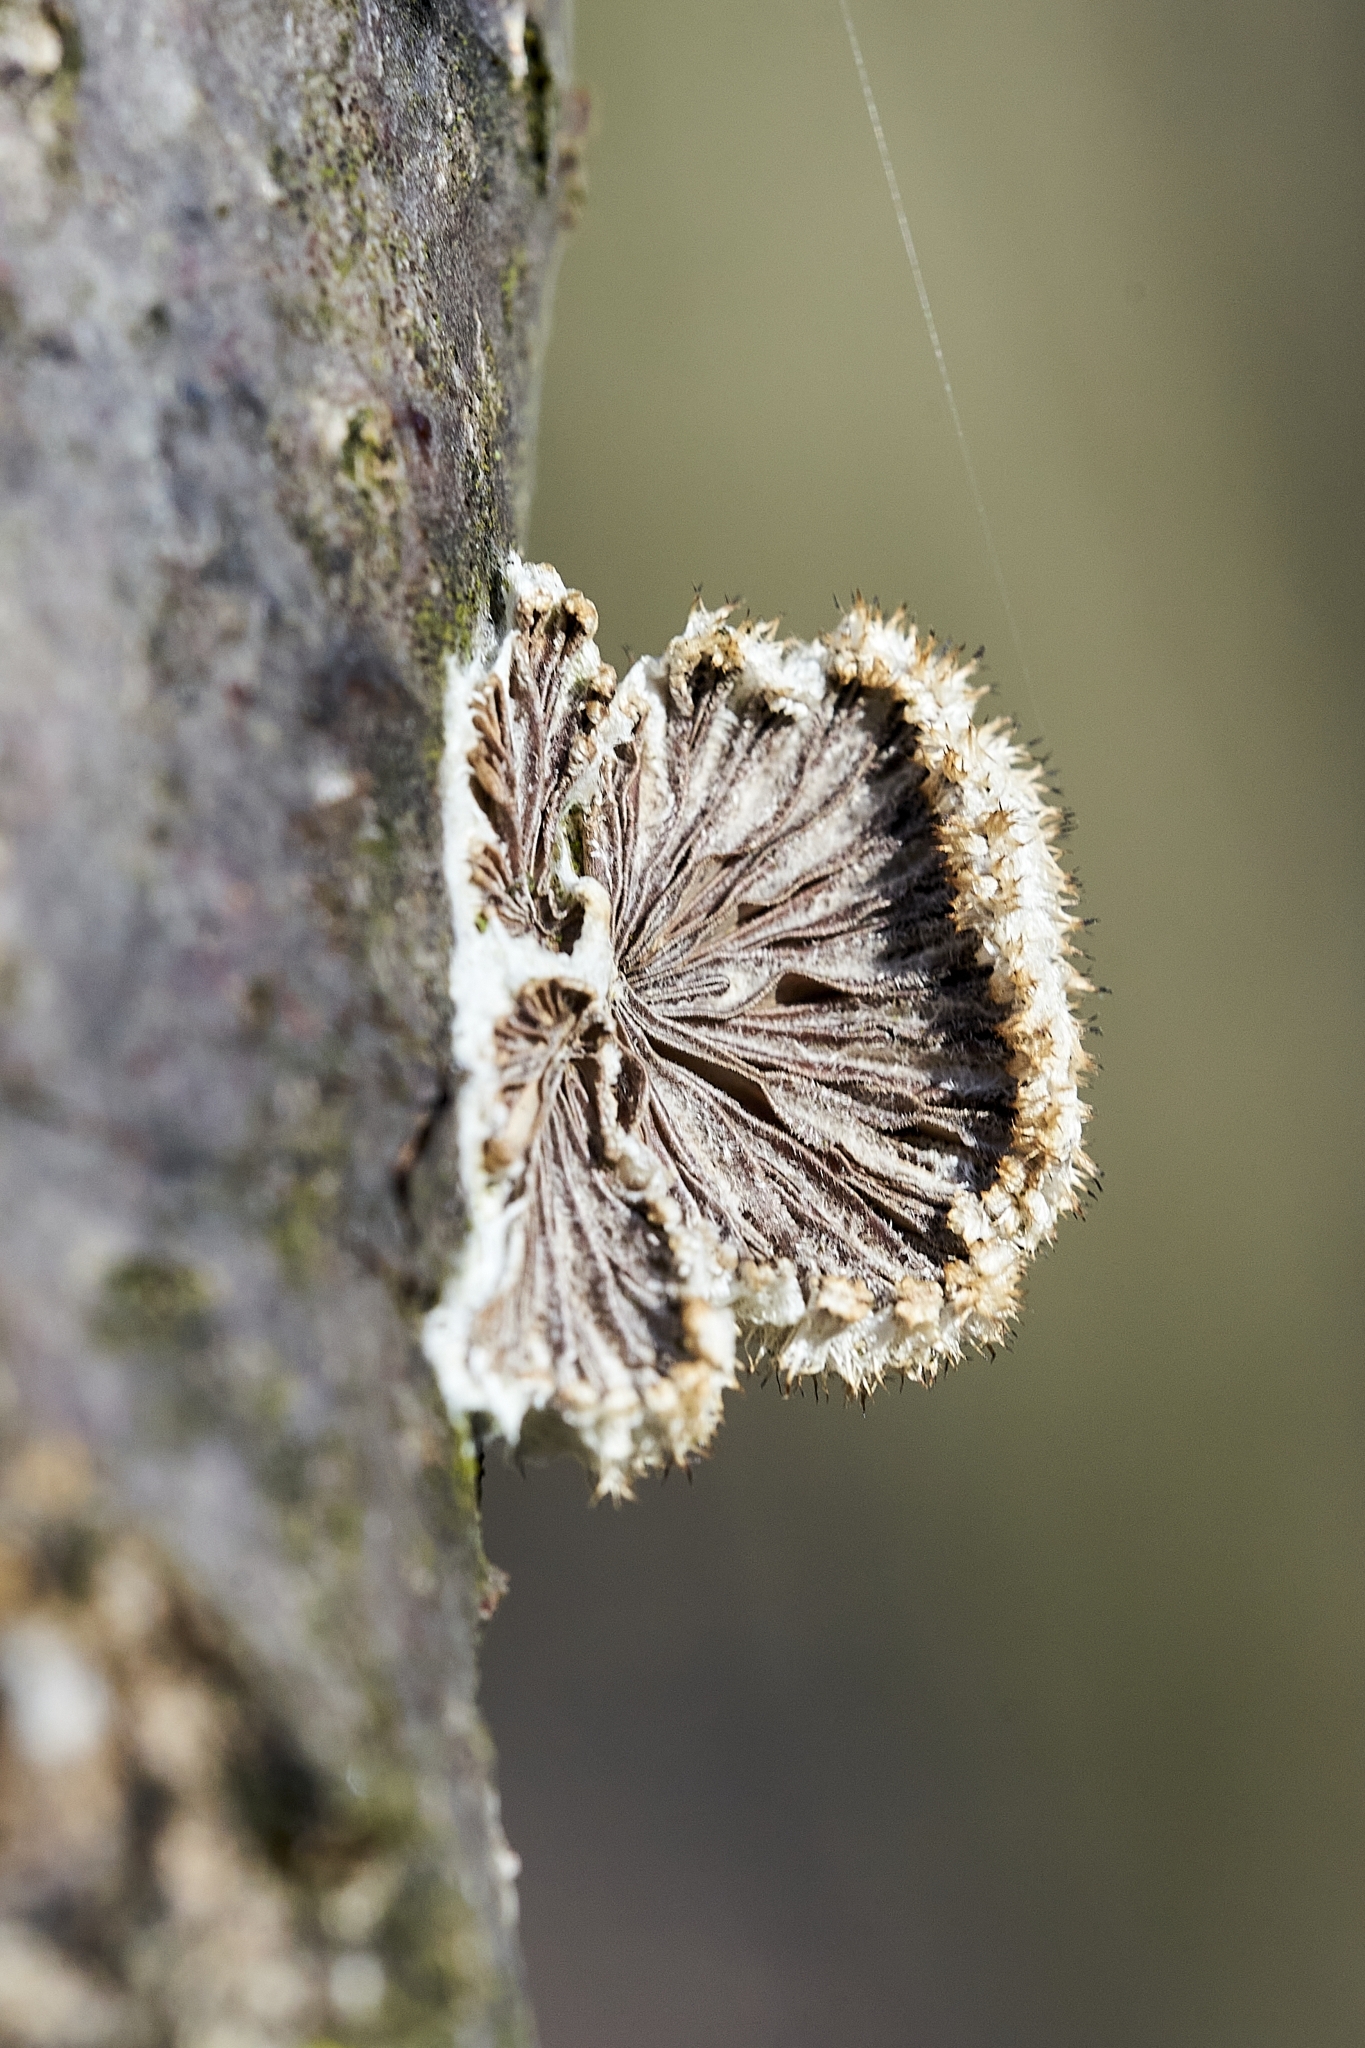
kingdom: Fungi
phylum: Basidiomycota
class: Agaricomycetes
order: Agaricales
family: Schizophyllaceae
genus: Schizophyllum
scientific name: Schizophyllum commune
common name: Common porecrust
